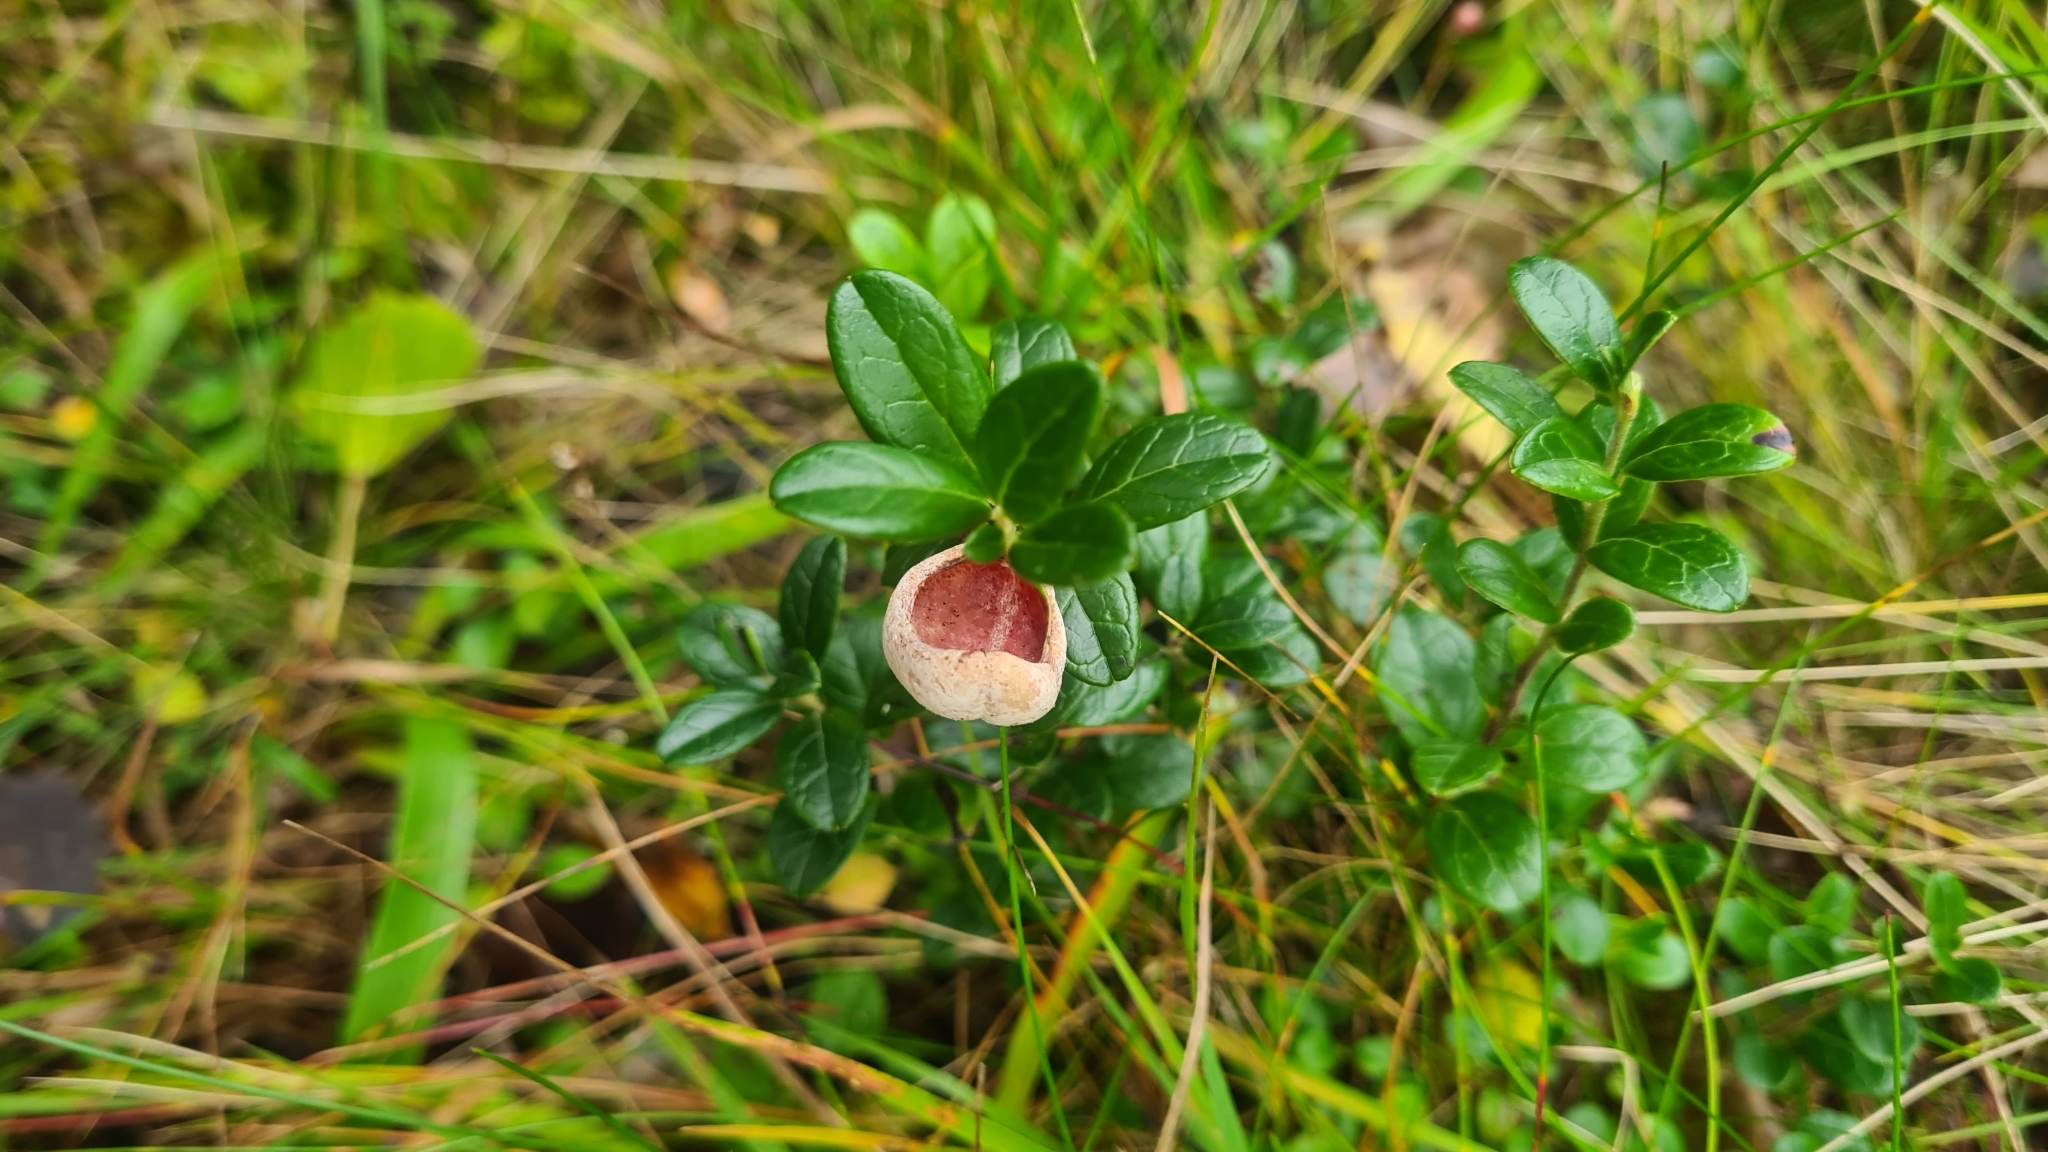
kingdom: Fungi
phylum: Basidiomycota
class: Exobasidiomycetes
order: Exobasidiales
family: Exobasidiaceae
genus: Exobasidium
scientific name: Exobasidium vaccinii
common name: Cowberry redleaf
